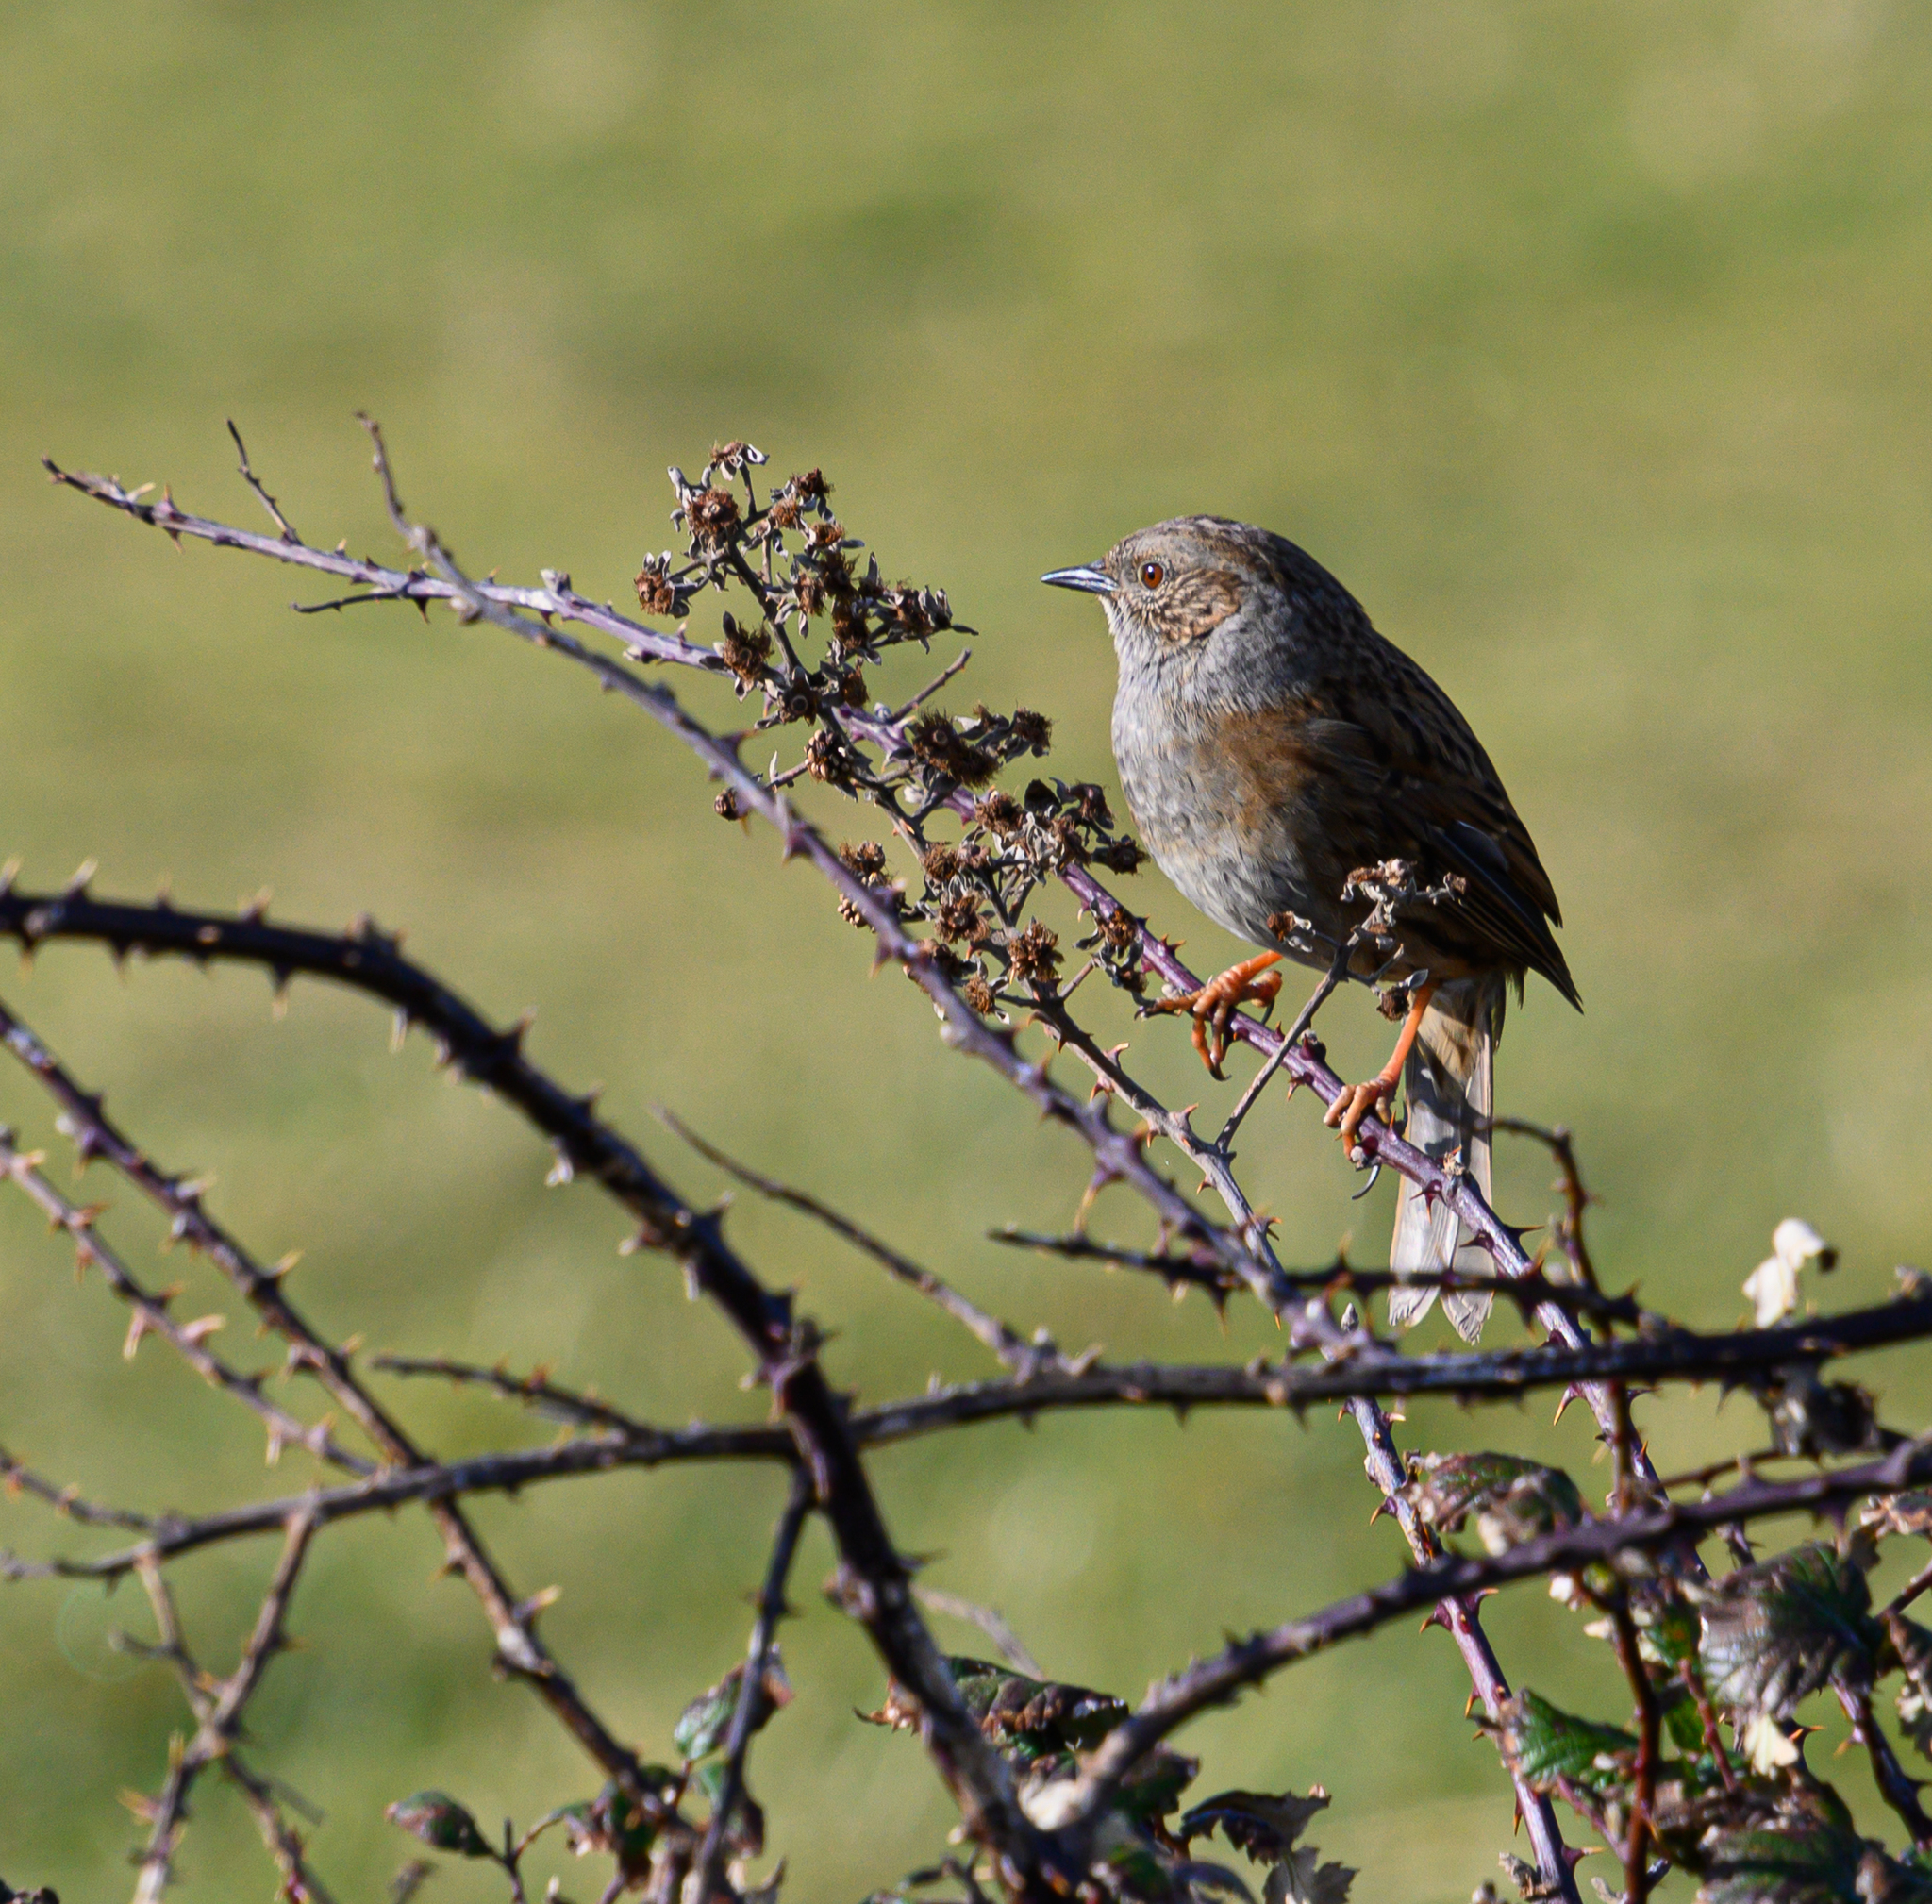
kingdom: Animalia
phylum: Chordata
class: Aves
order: Passeriformes
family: Prunellidae
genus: Prunella
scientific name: Prunella modularis
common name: Dunnock
